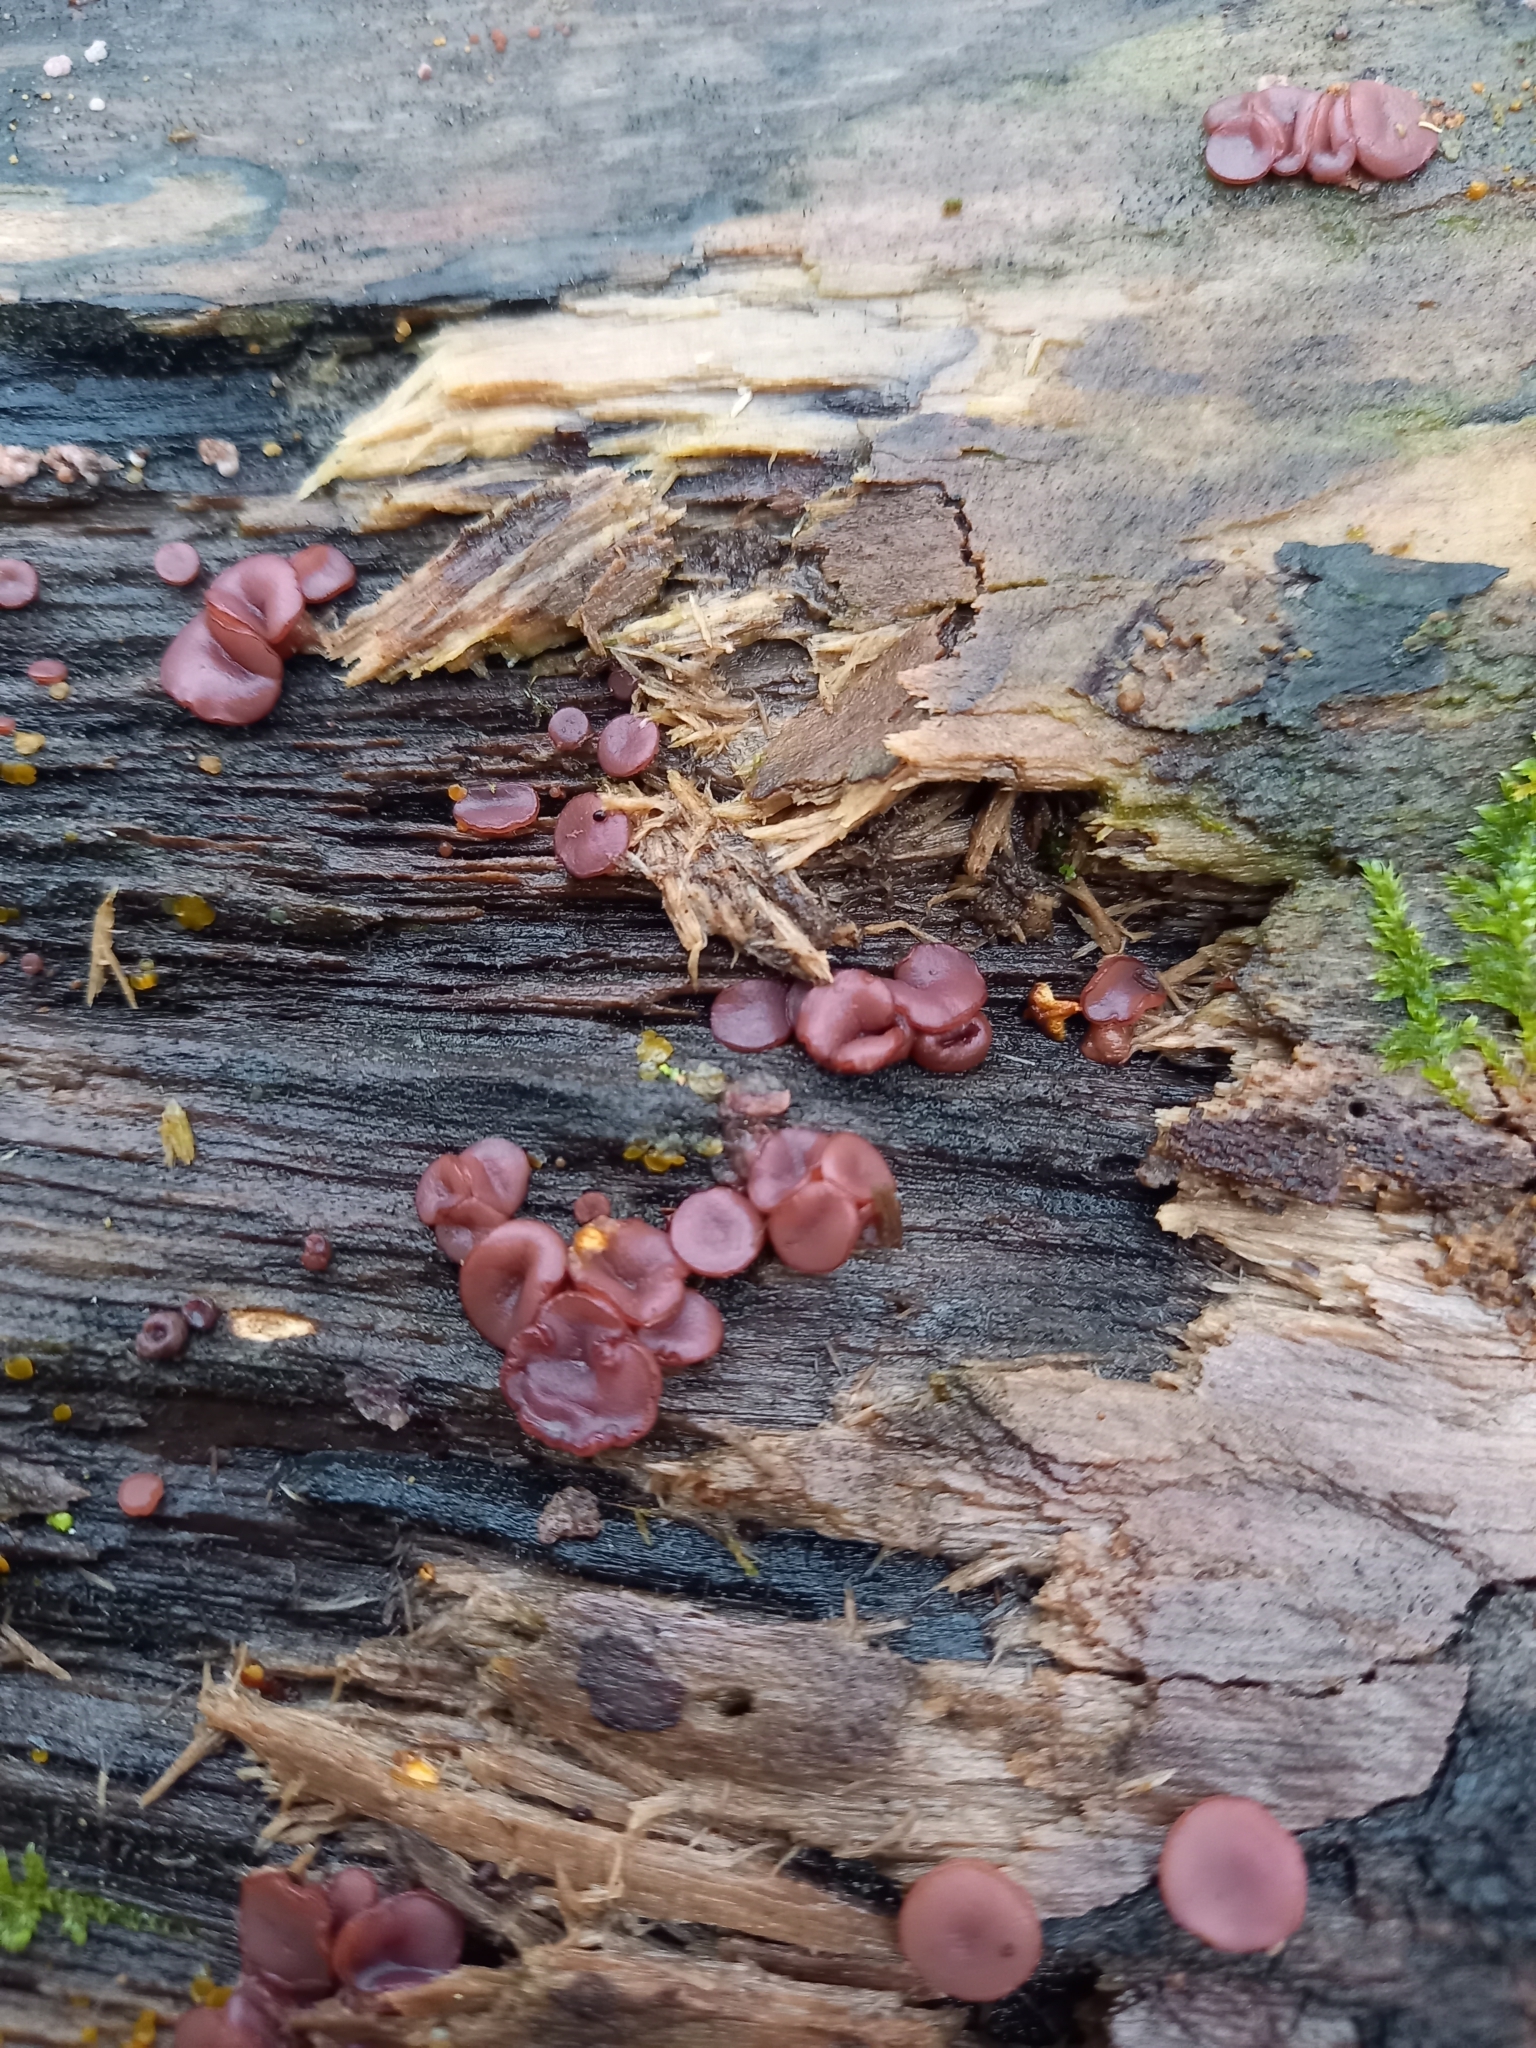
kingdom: Fungi
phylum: Ascomycota
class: Leotiomycetes
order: Helotiales
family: Gelatinodiscaceae
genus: Ascocoryne
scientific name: Ascocoryne cylichnium
